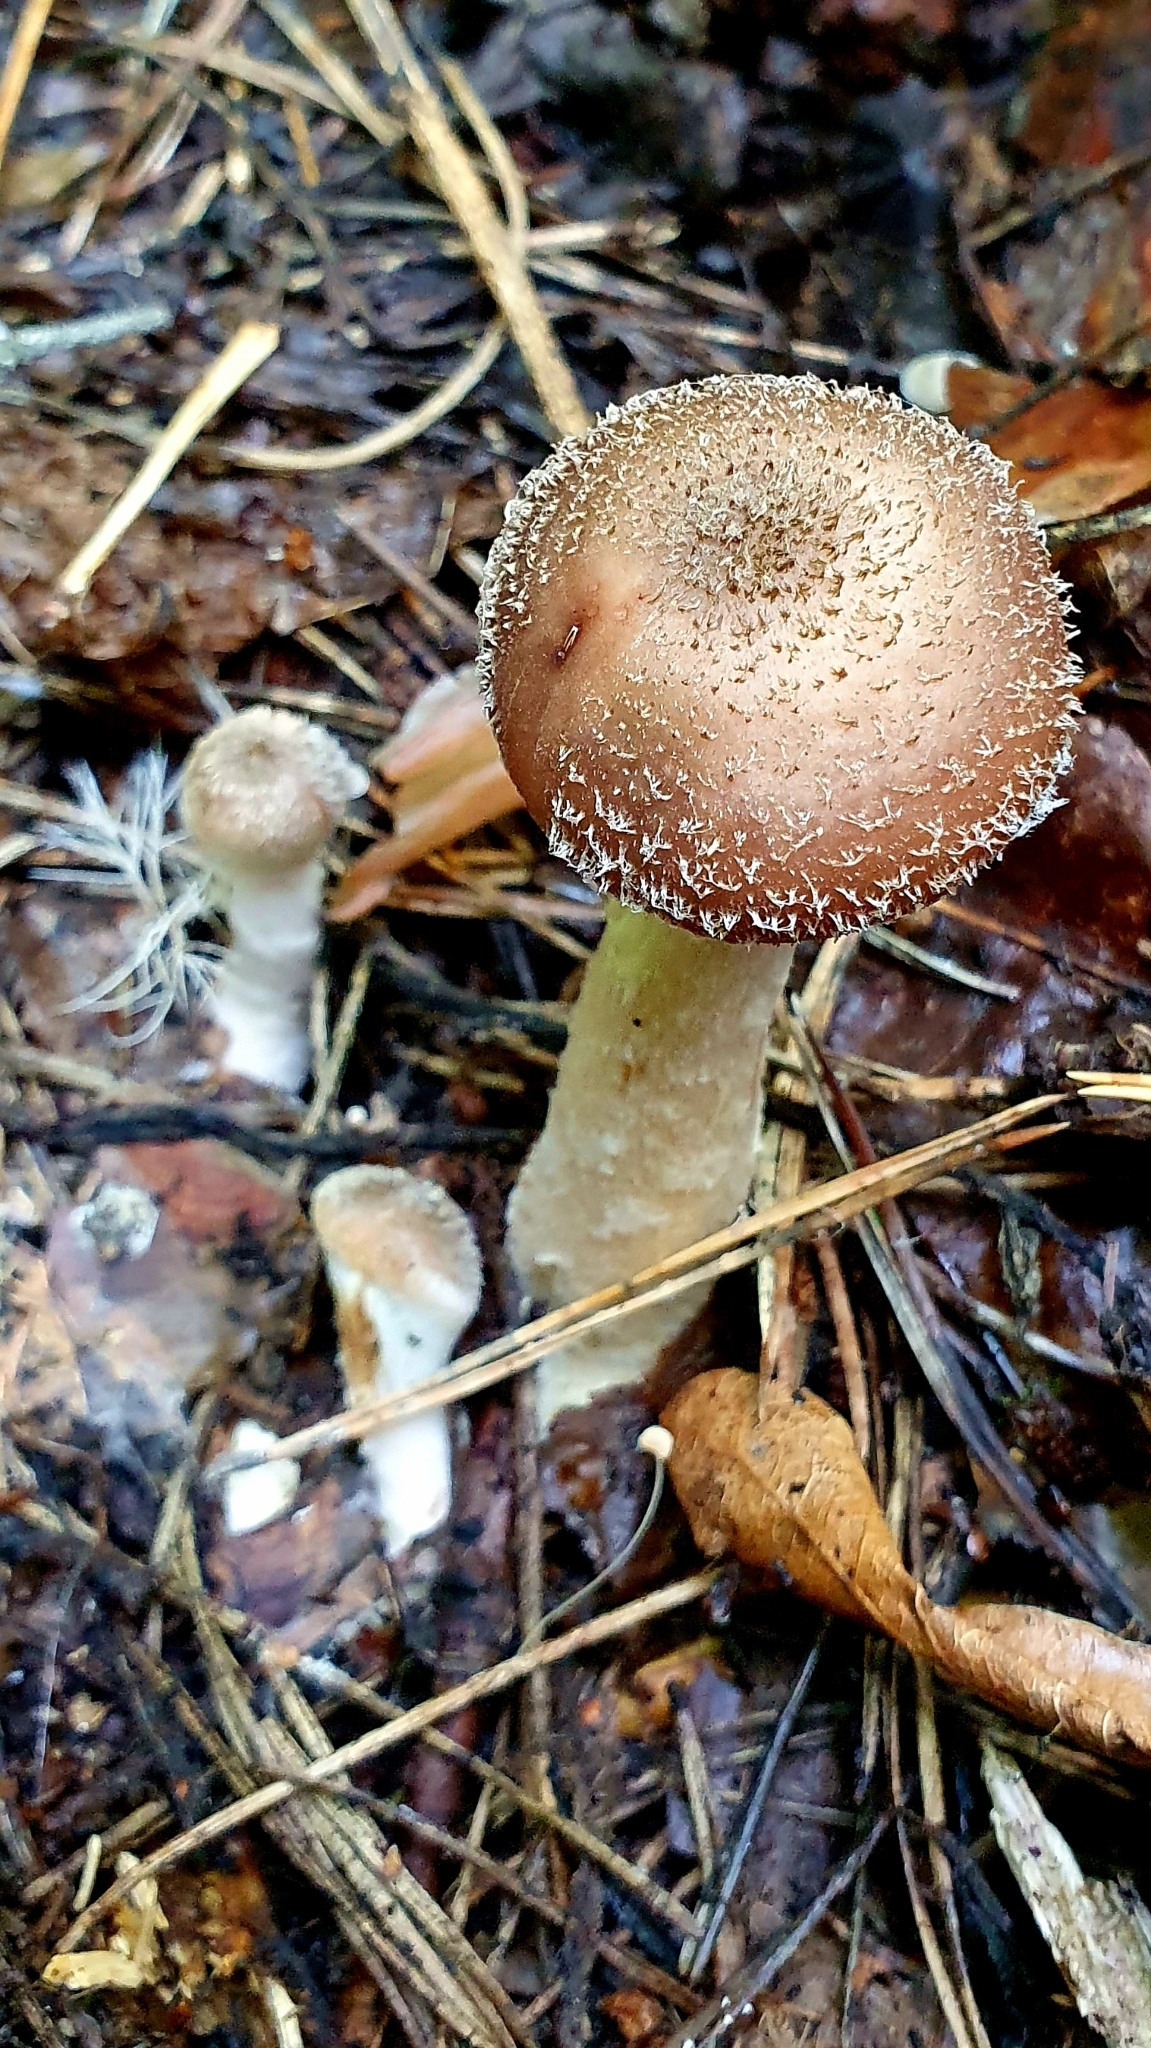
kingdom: Fungi
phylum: Basidiomycota
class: Agaricomycetes
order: Agaricales
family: Physalacriaceae
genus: Armillaria
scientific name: Armillaria gallica
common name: Bulbous honey fungus
